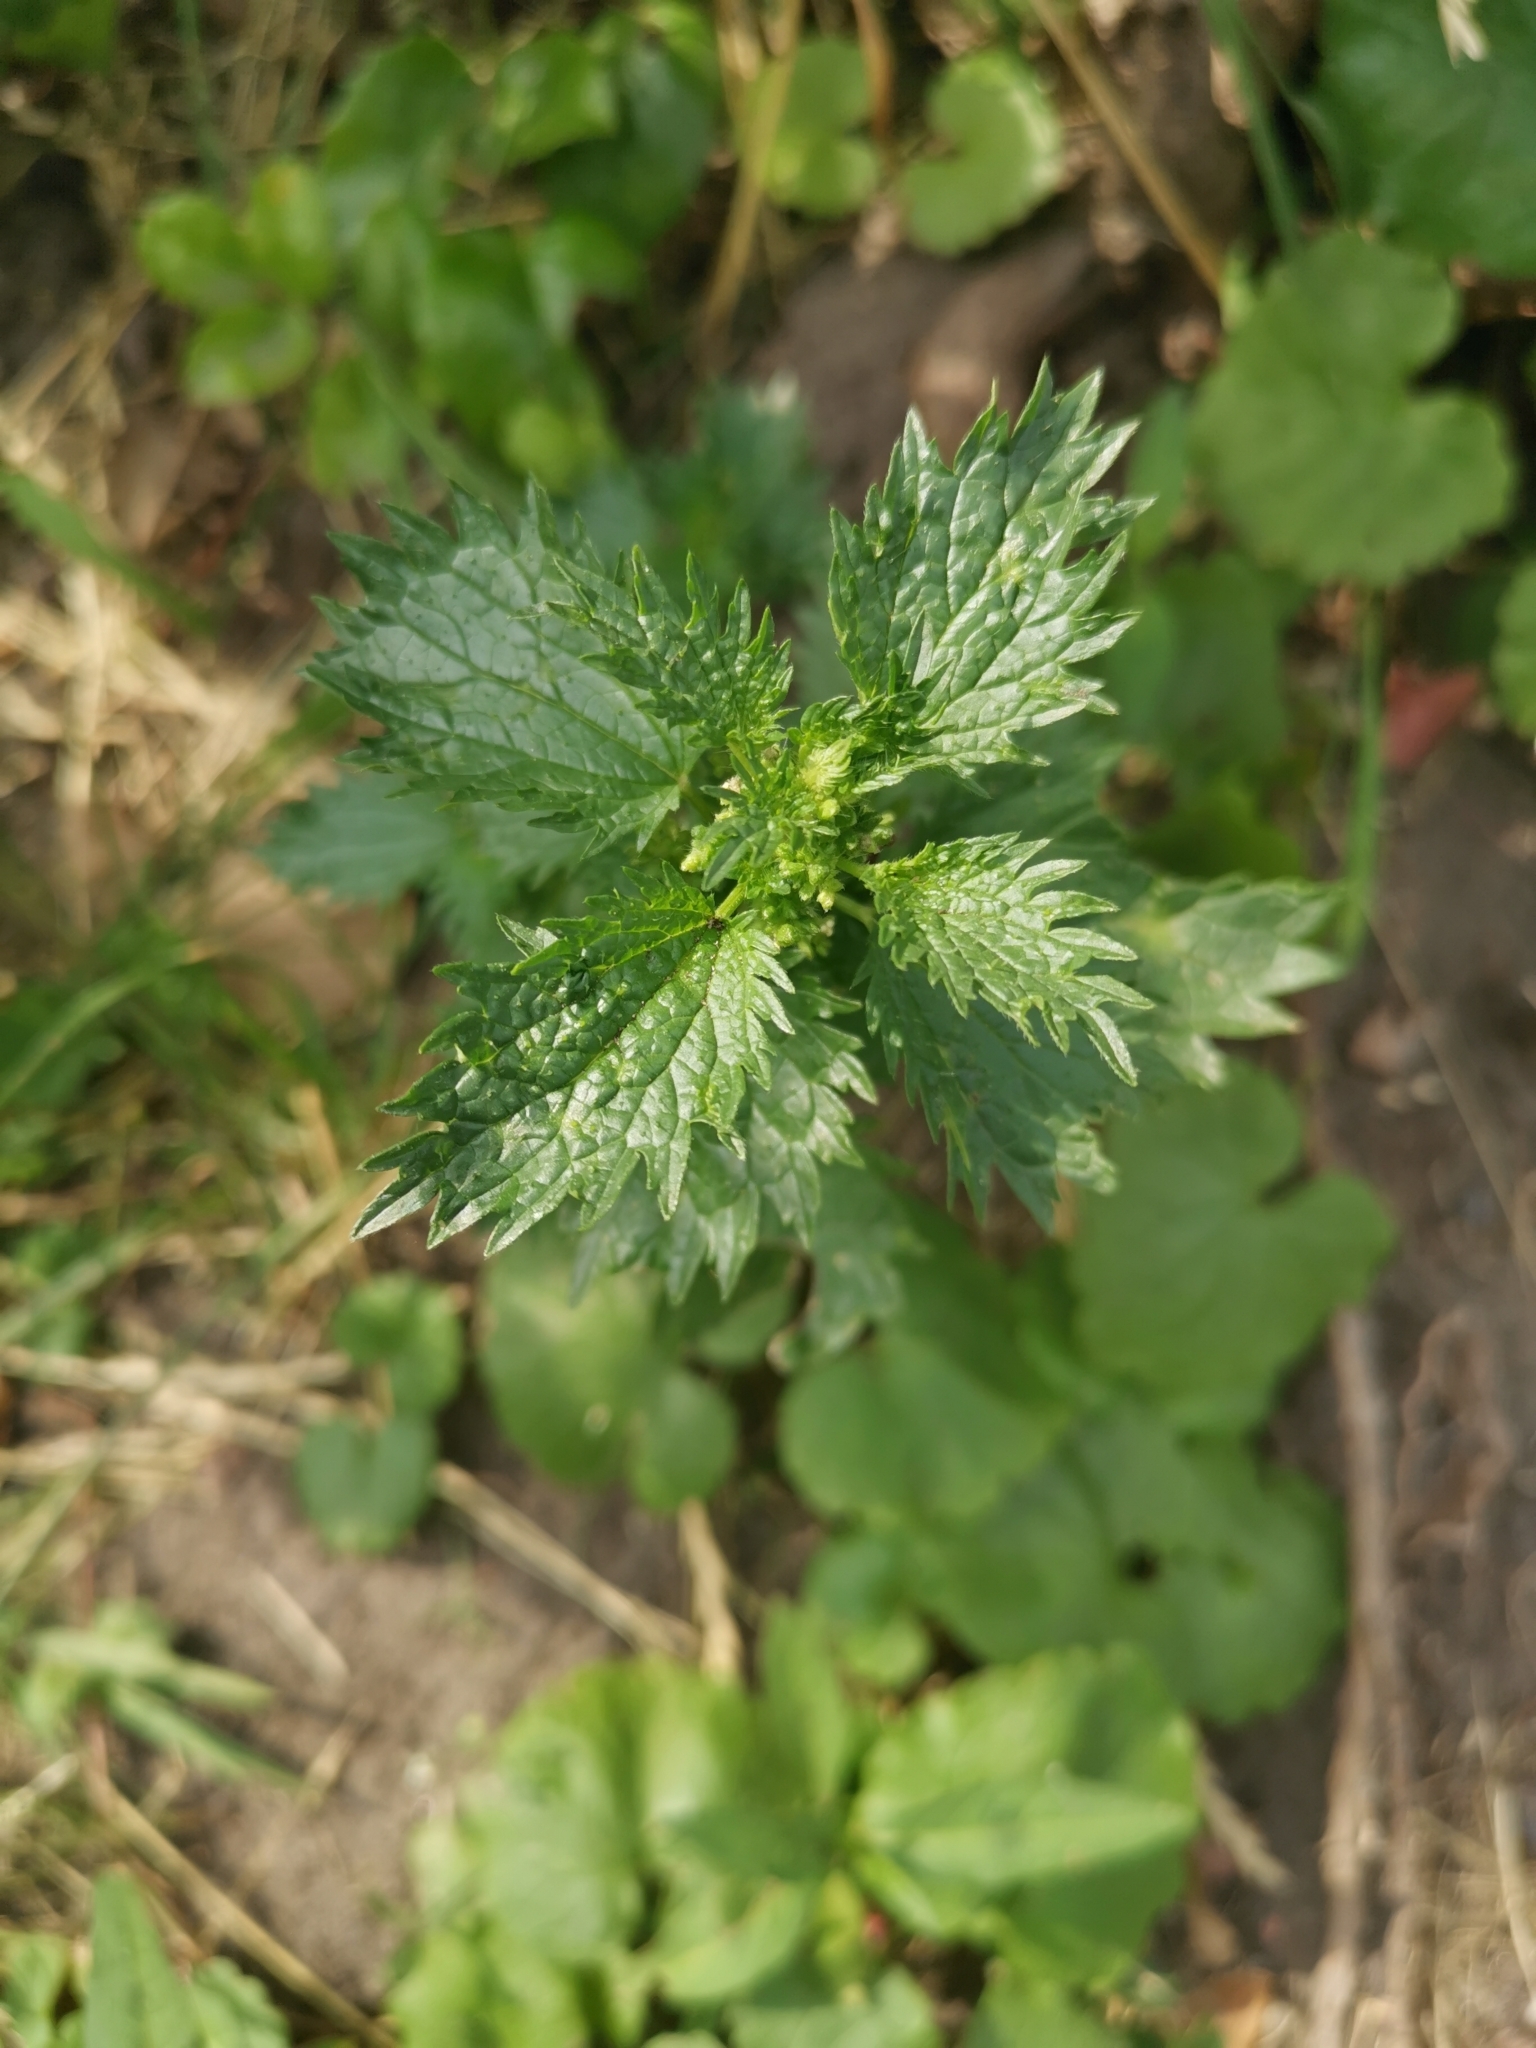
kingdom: Plantae
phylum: Tracheophyta
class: Magnoliopsida
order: Rosales
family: Urticaceae
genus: Urtica
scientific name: Urtica urens
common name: Dwarf nettle
